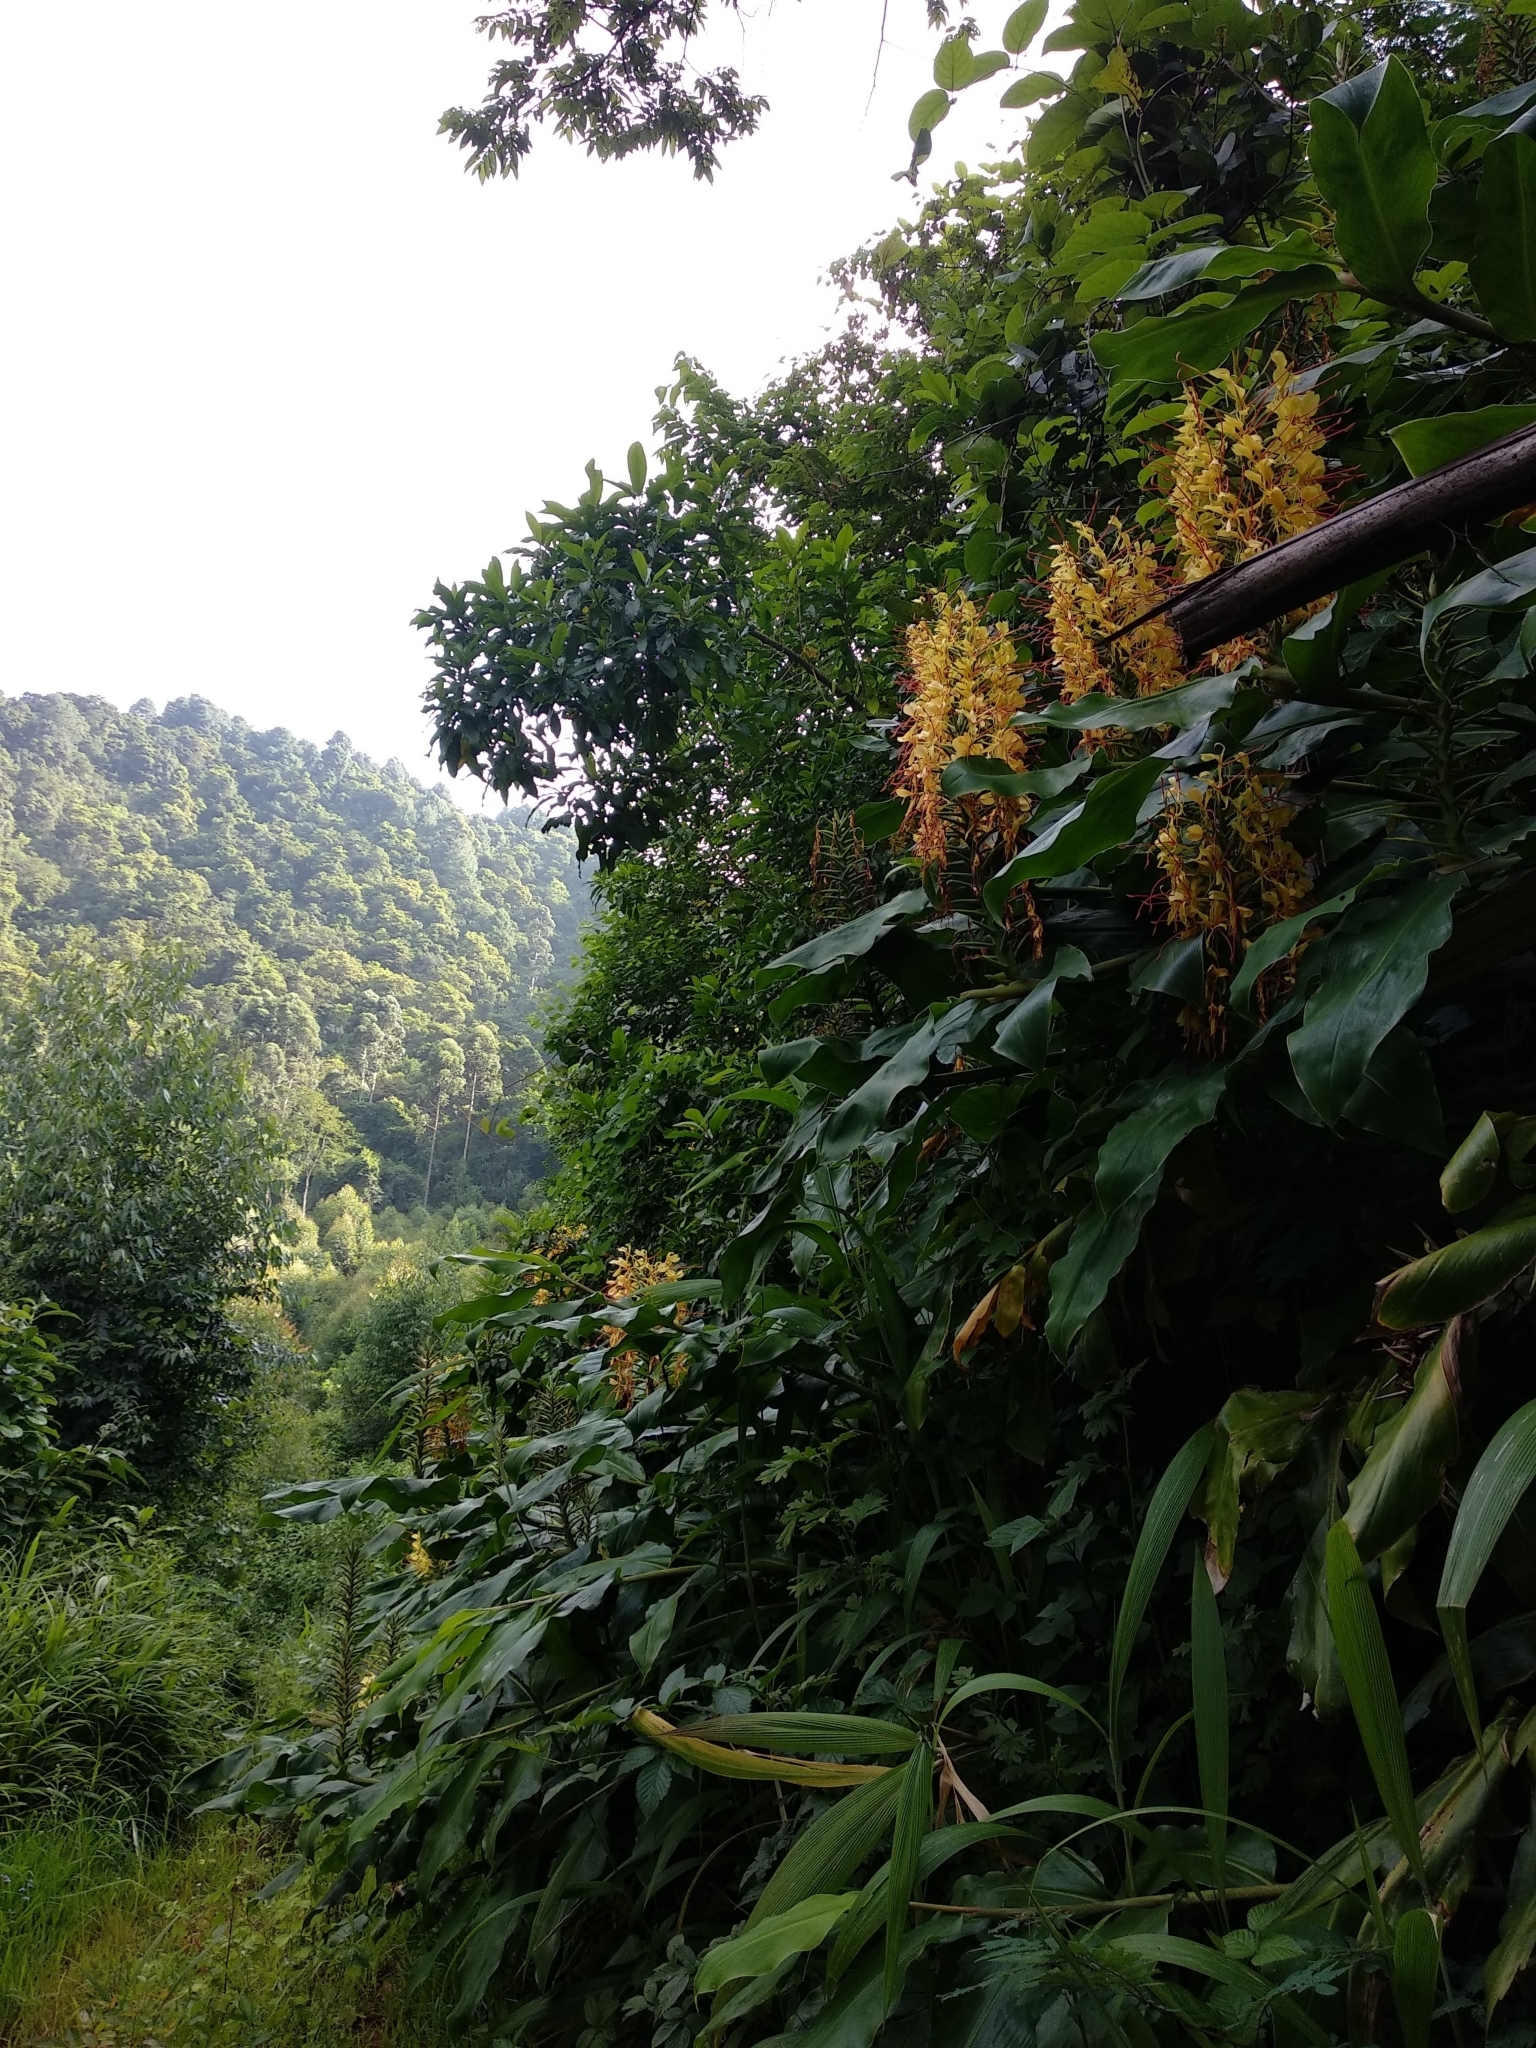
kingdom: Plantae
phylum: Tracheophyta
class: Liliopsida
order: Zingiberales
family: Zingiberaceae
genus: Hedychium
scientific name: Hedychium gardnerianum
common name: Himalayan ginger
